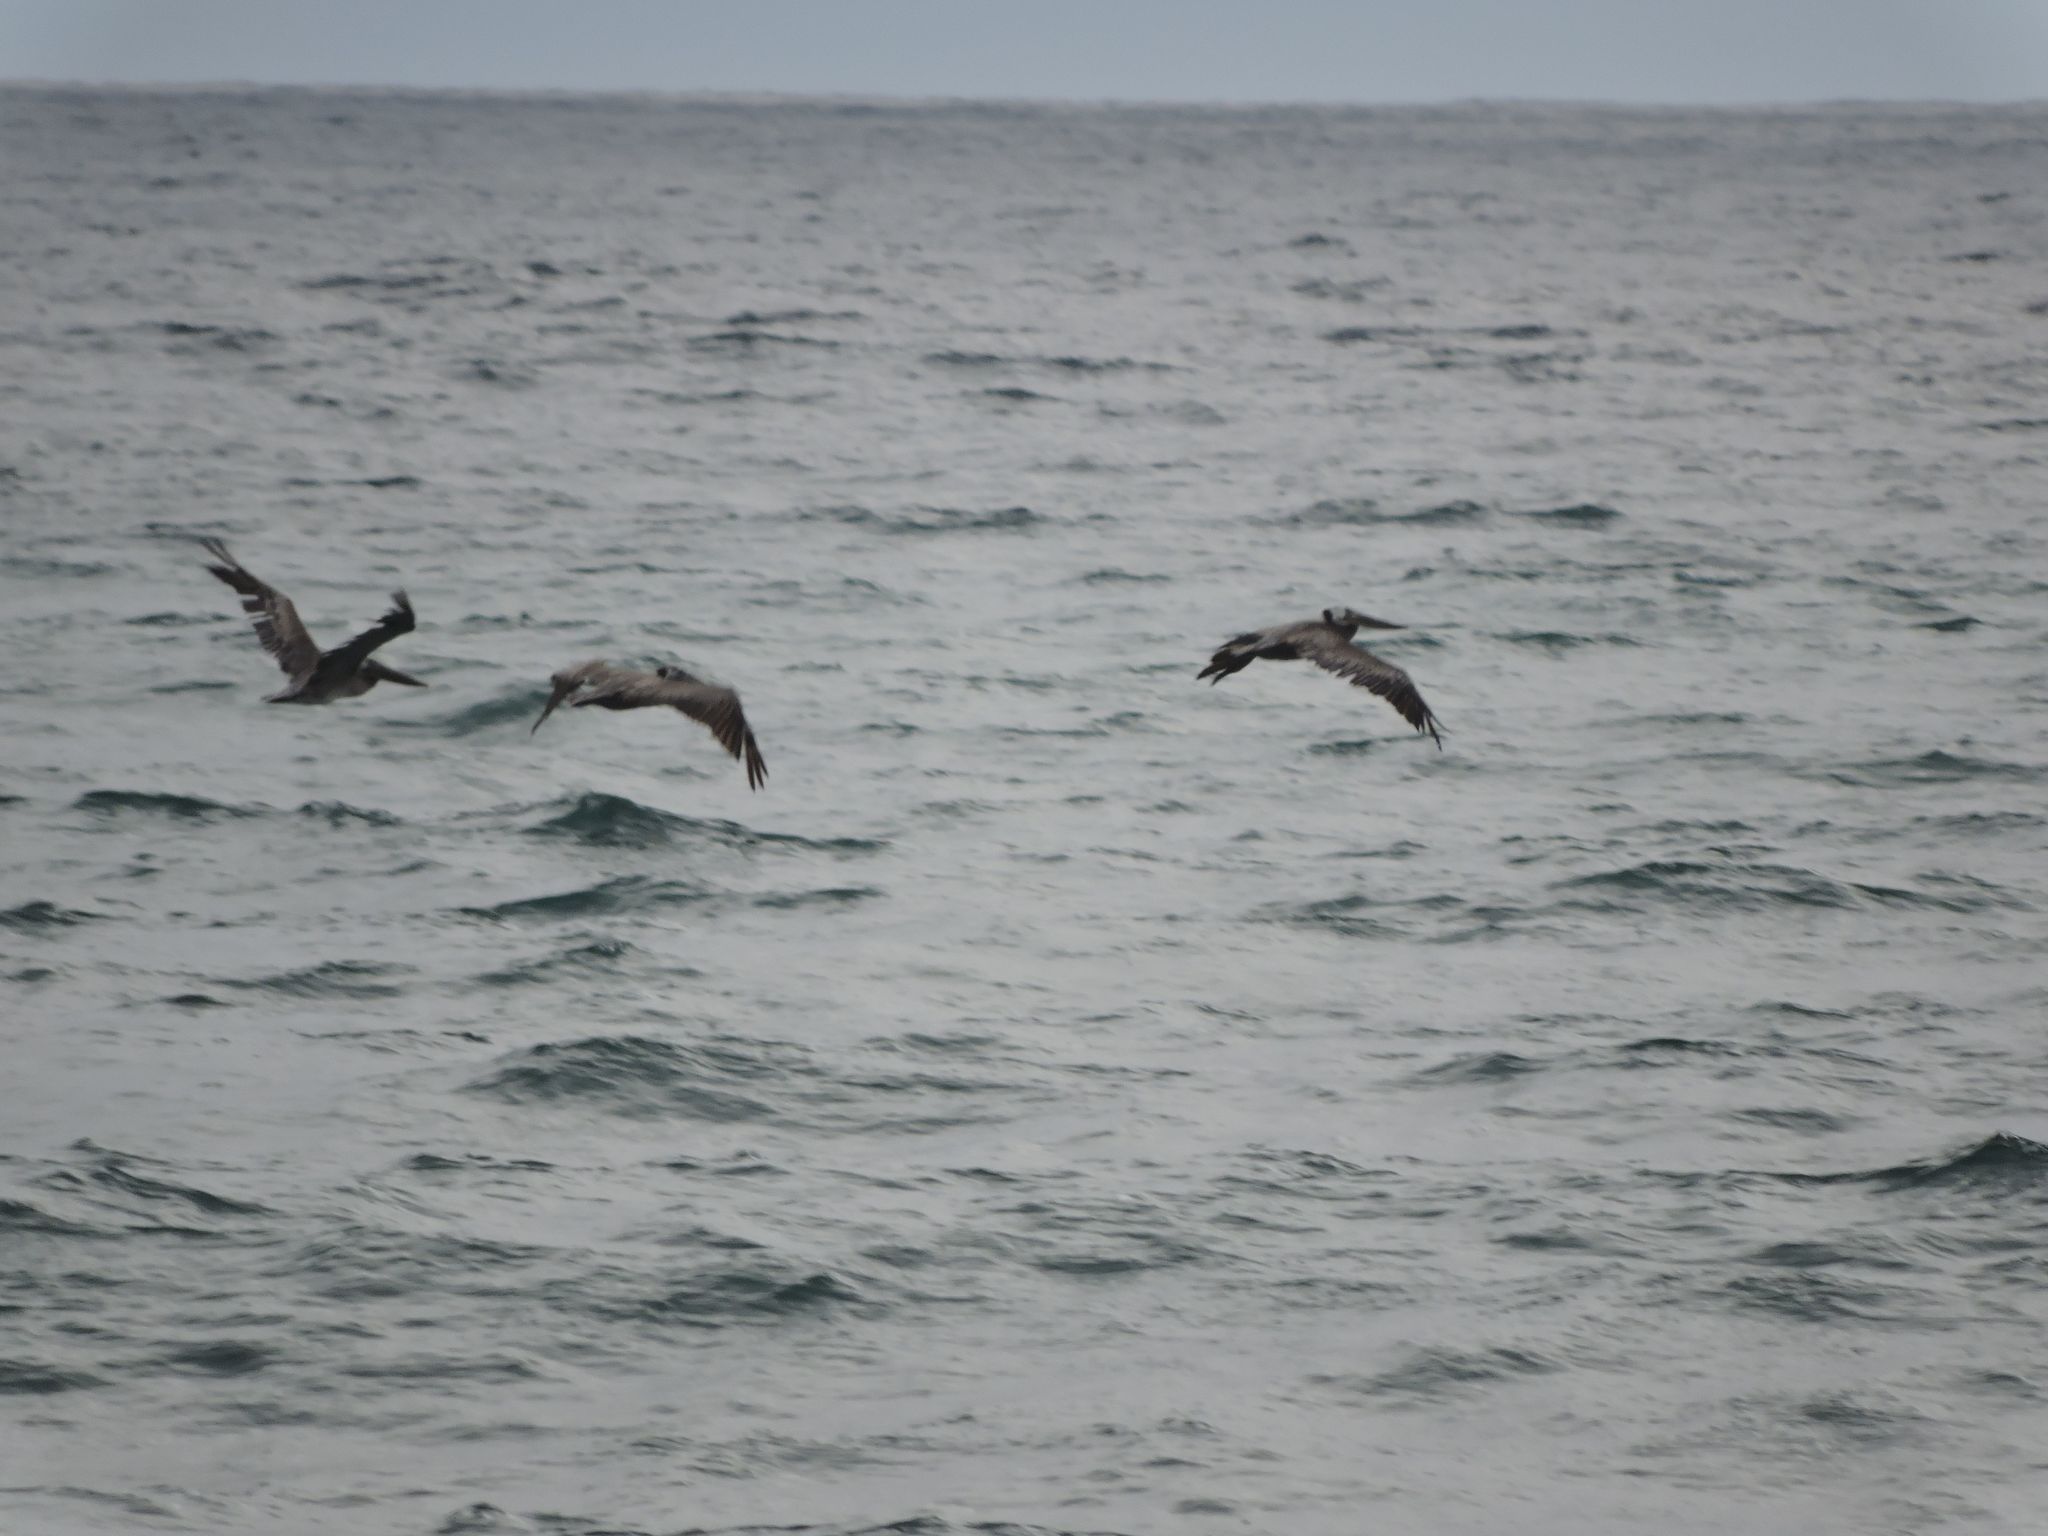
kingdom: Animalia
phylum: Chordata
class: Aves
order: Pelecaniformes
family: Pelecanidae
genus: Pelecanus
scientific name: Pelecanus occidentalis
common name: Brown pelican
